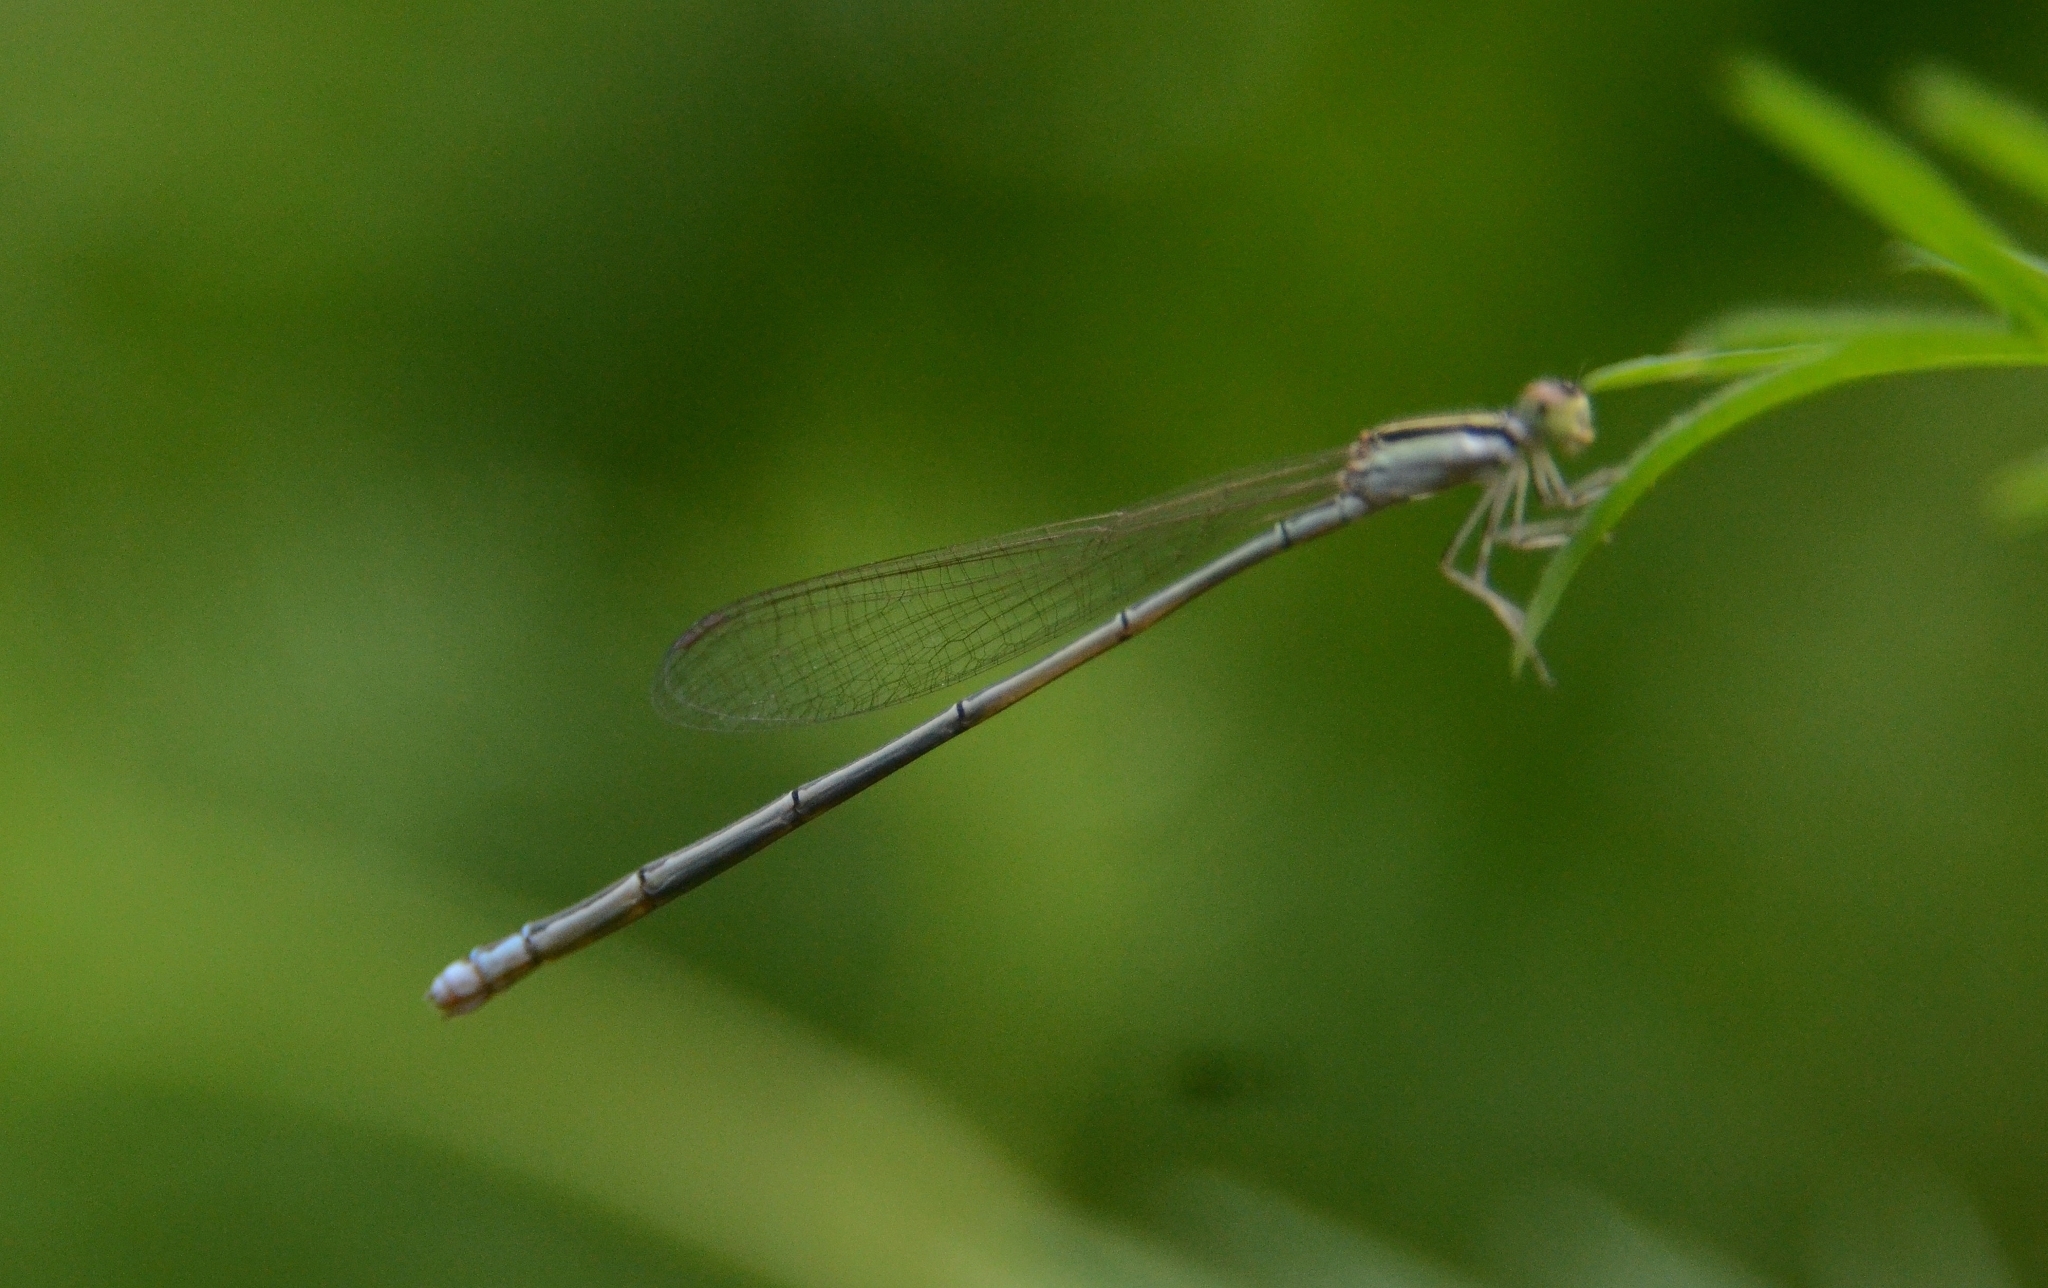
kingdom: Animalia
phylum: Arthropoda
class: Insecta
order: Odonata
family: Coenagrionidae
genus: Aciagrion
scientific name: Aciagrion occidentale
